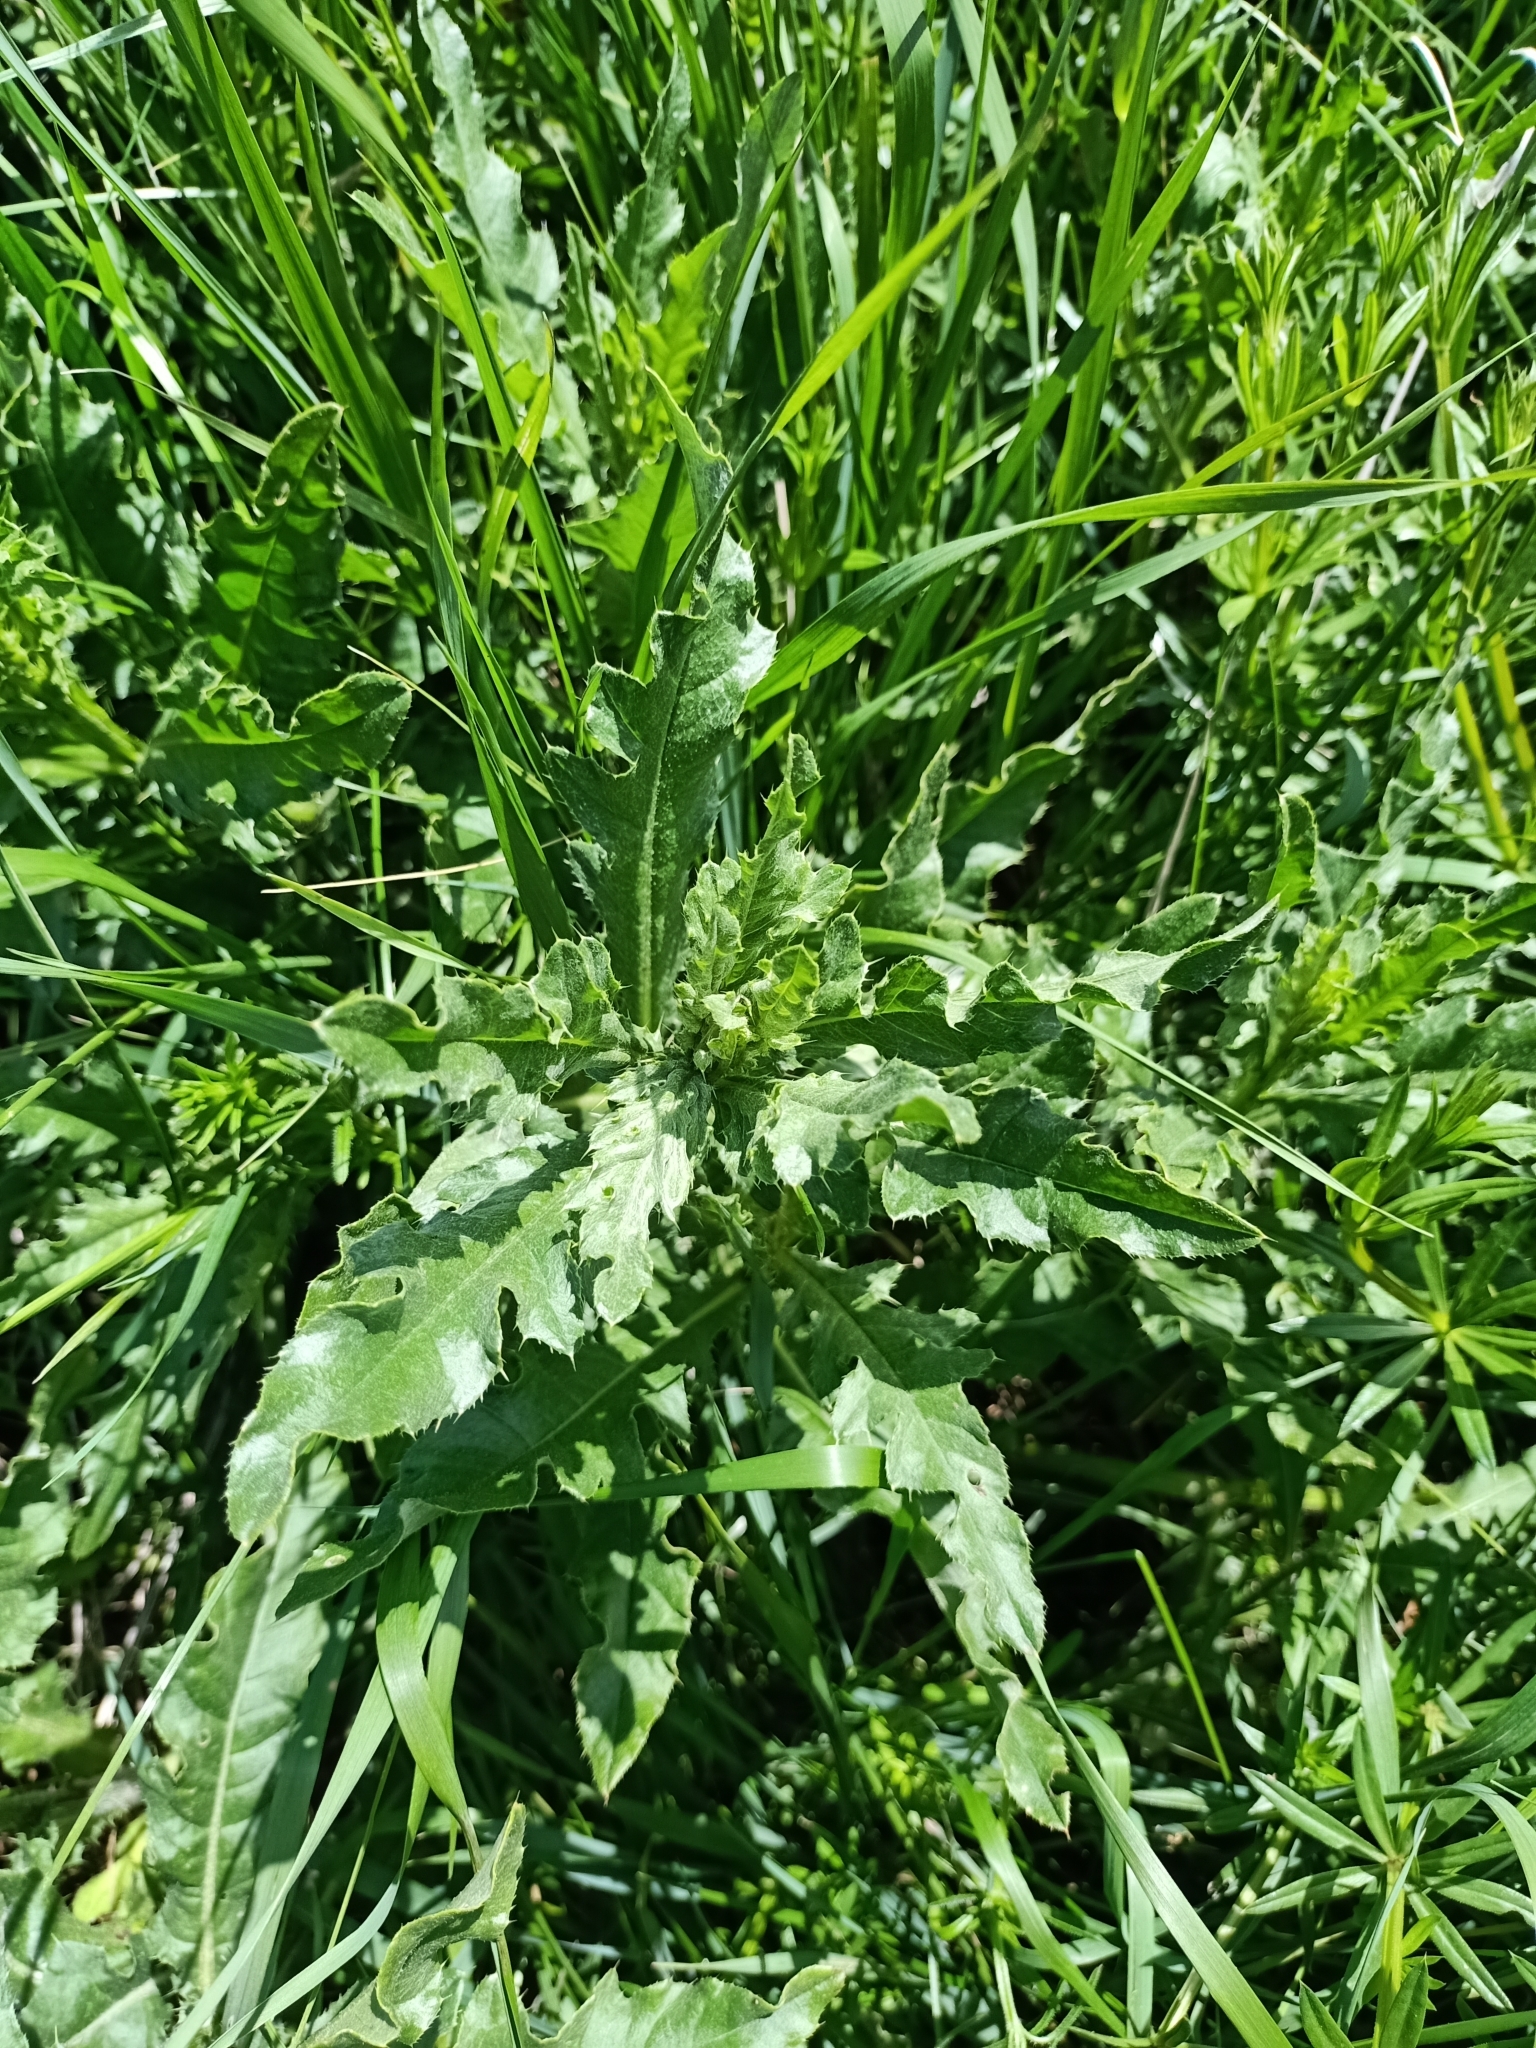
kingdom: Plantae
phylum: Tracheophyta
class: Magnoliopsida
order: Asterales
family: Asteraceae
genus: Cirsium
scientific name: Cirsium arvense
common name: Creeping thistle
